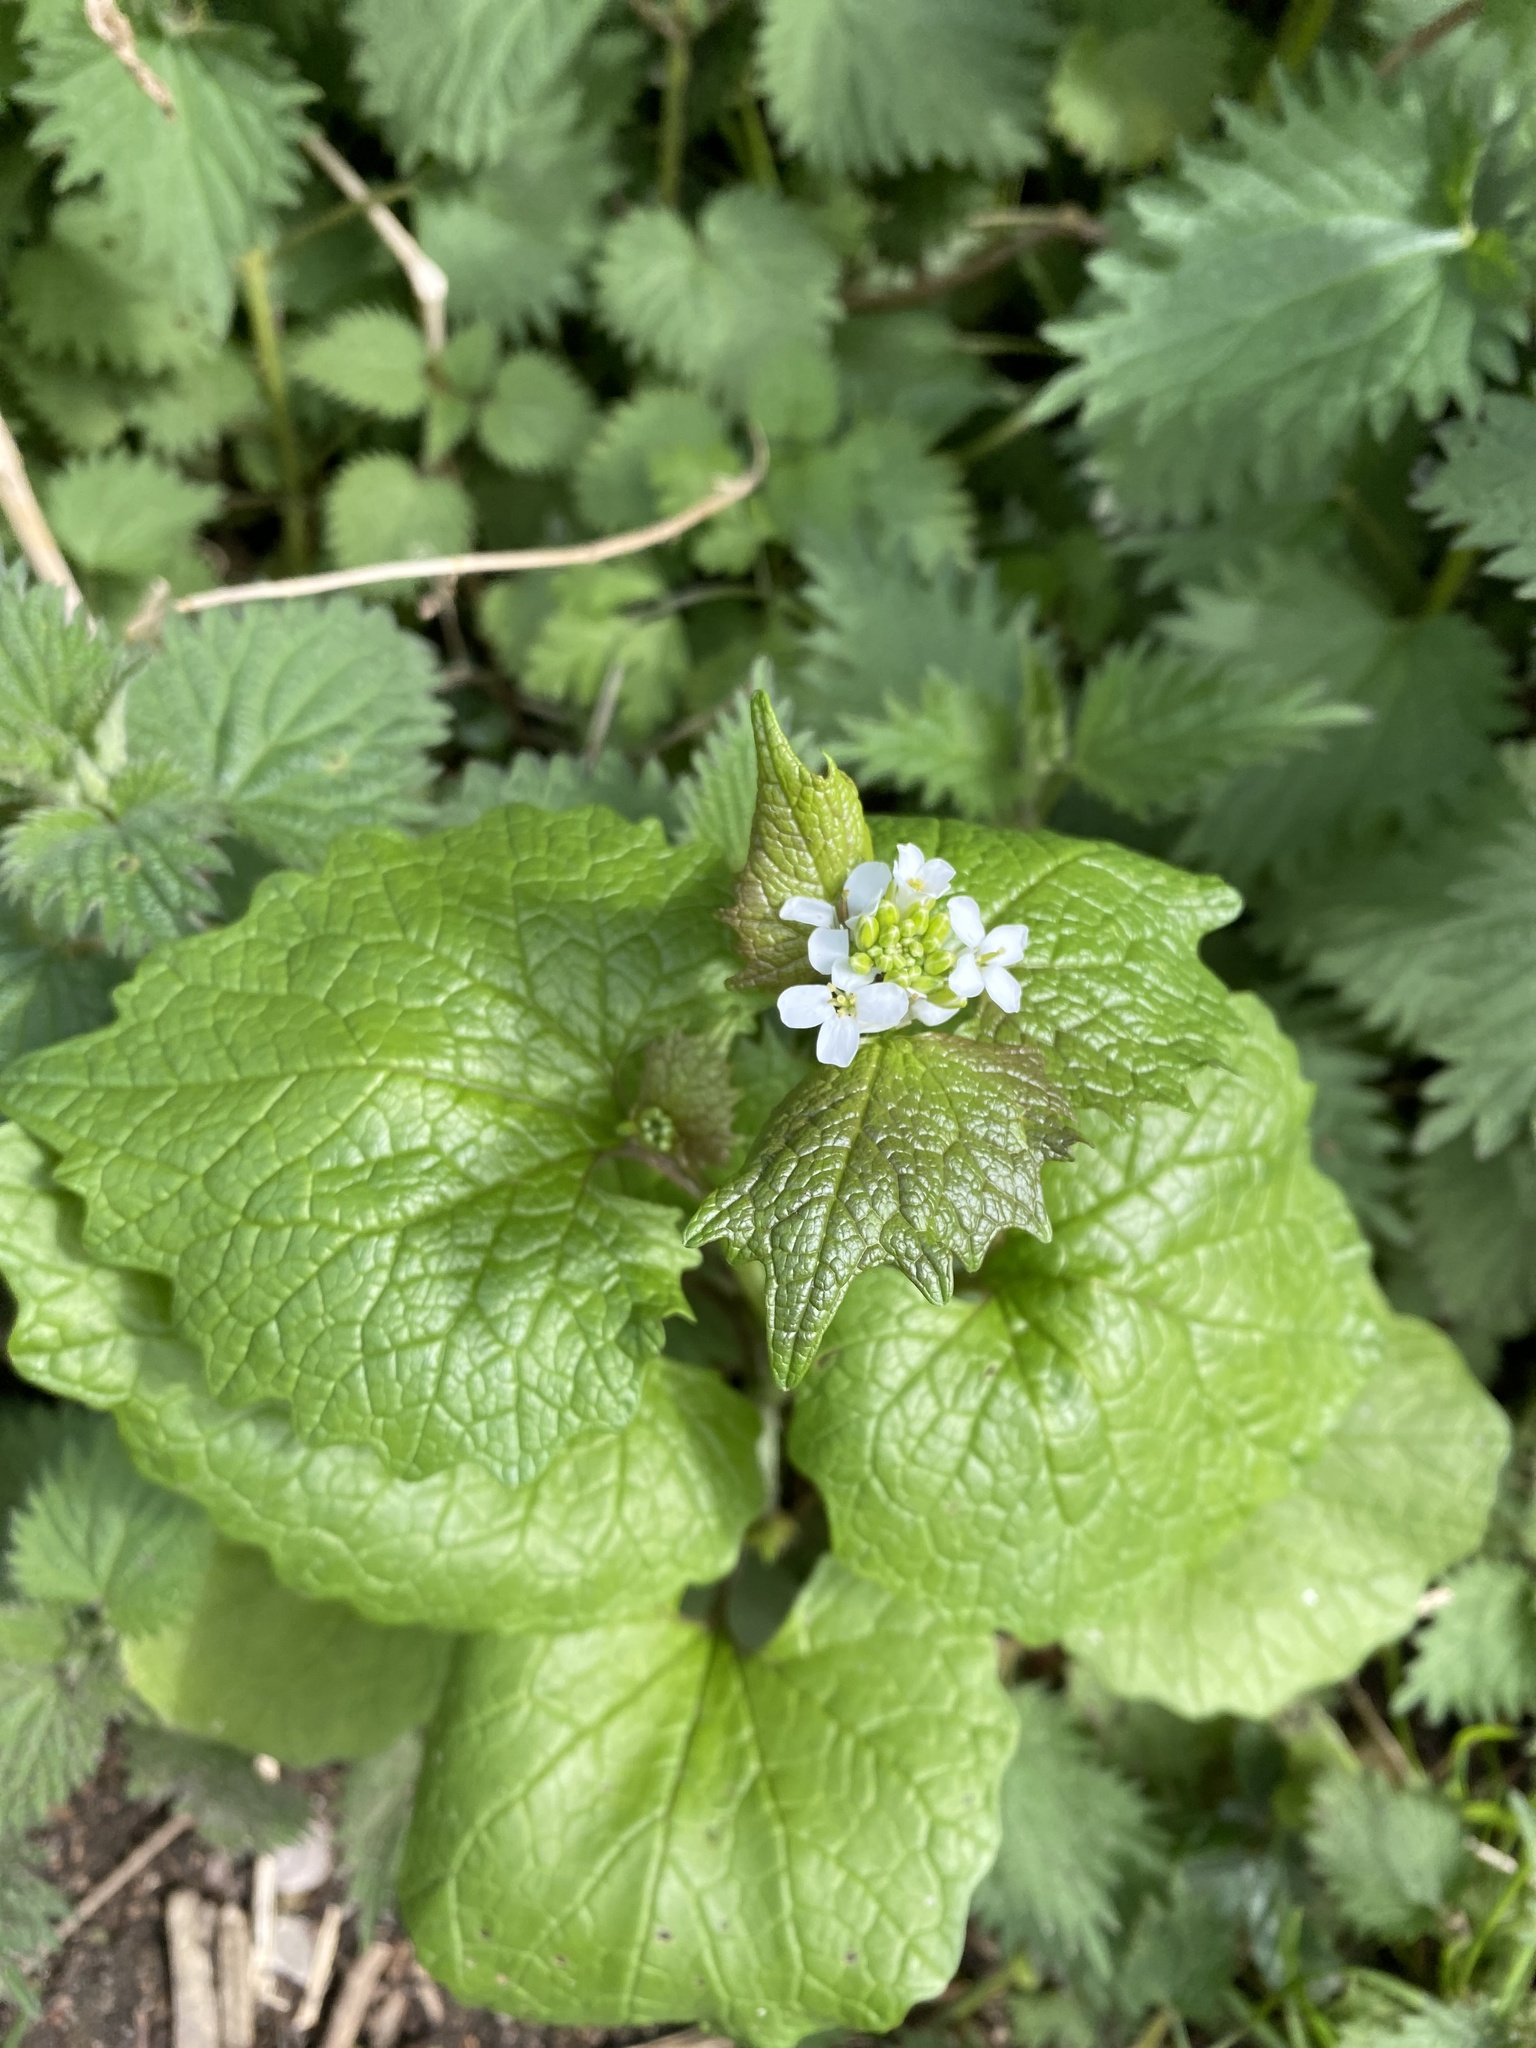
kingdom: Plantae
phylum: Tracheophyta
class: Magnoliopsida
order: Brassicales
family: Brassicaceae
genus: Alliaria
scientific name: Alliaria petiolata
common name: Garlic mustard
